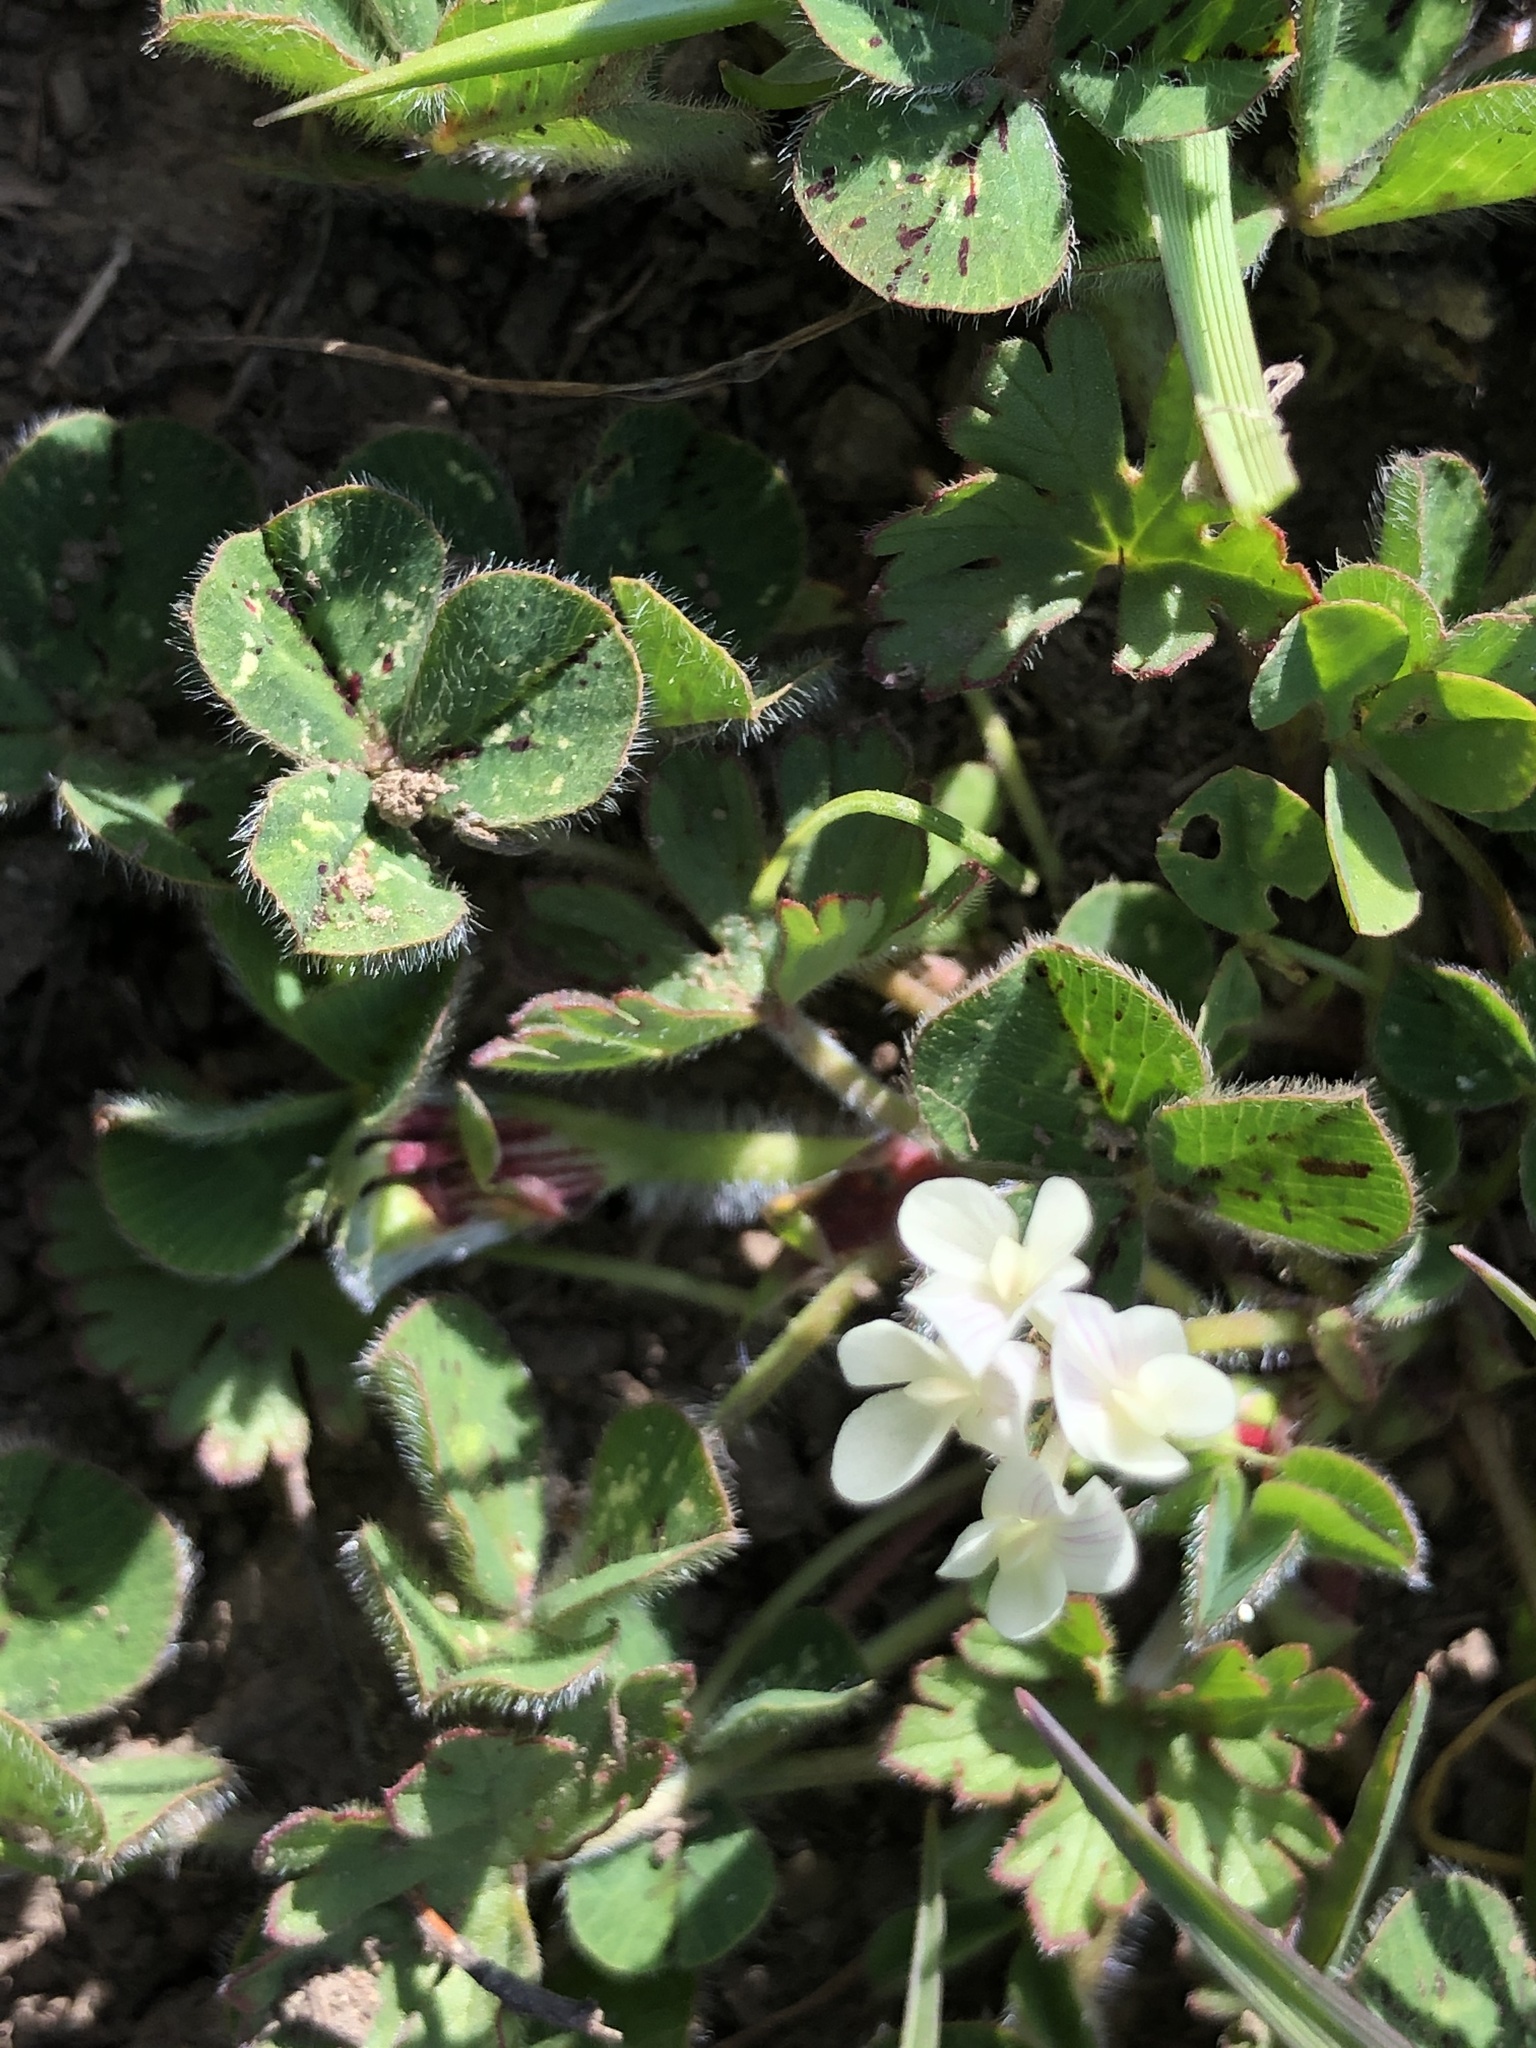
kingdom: Plantae
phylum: Tracheophyta
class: Magnoliopsida
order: Fabales
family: Fabaceae
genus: Trifolium
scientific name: Trifolium subterraneum
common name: Subterranean clover
